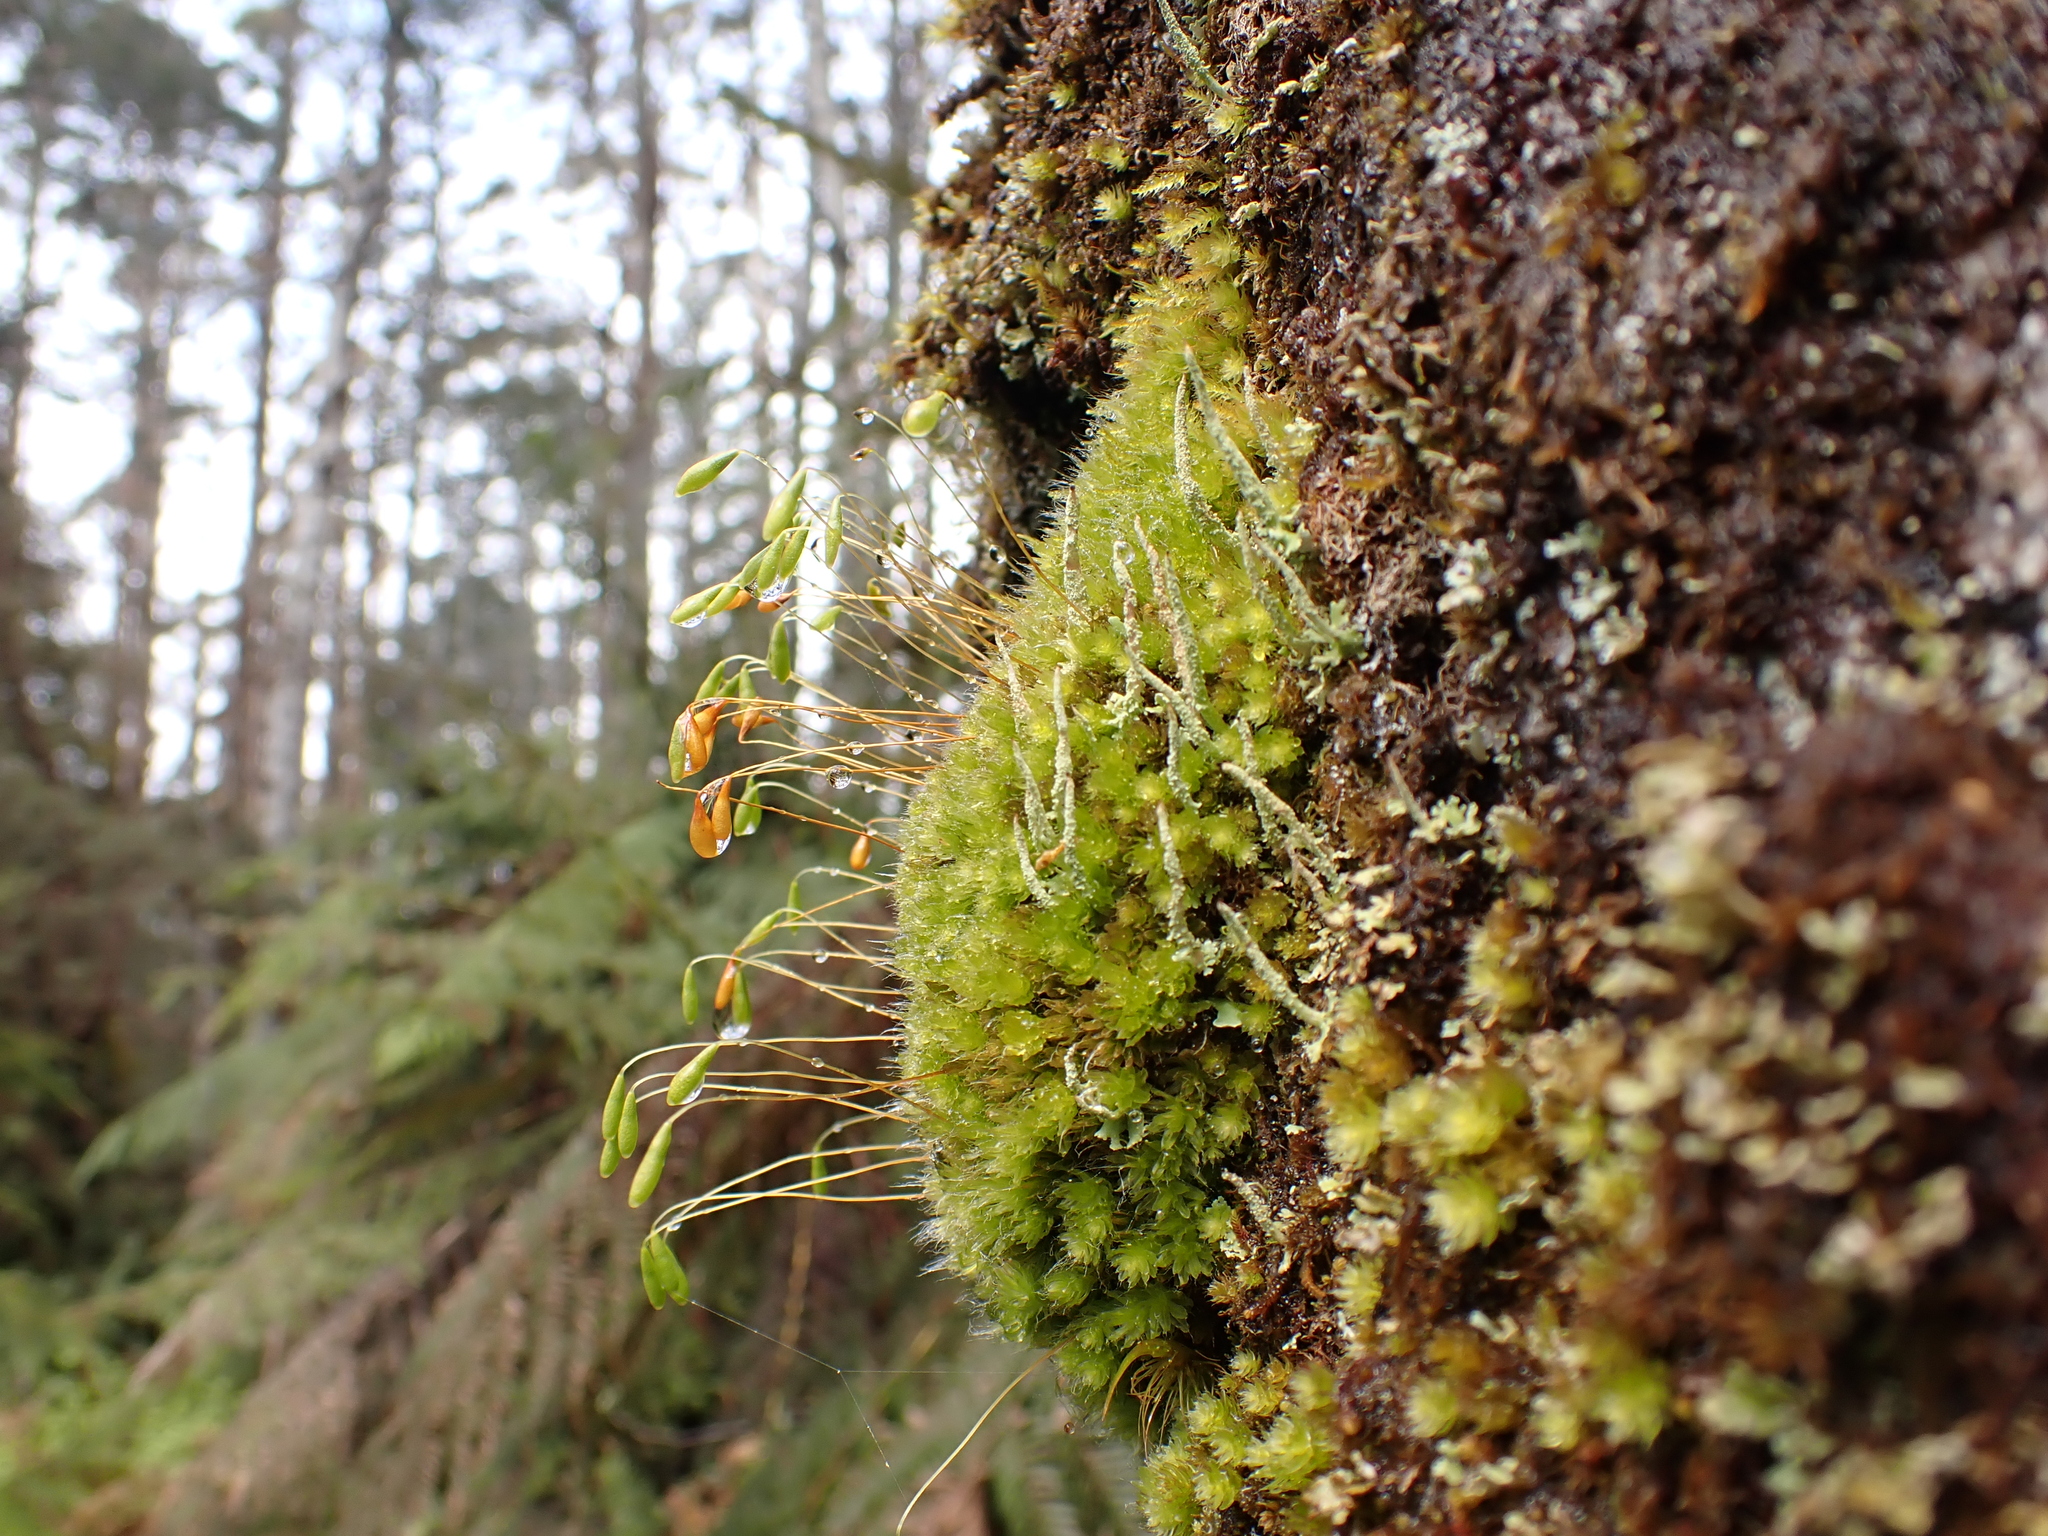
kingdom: Plantae
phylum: Bryophyta
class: Bryopsida
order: Bryales
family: Leptostomataceae
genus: Leptostomum
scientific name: Leptostomum inclinans
